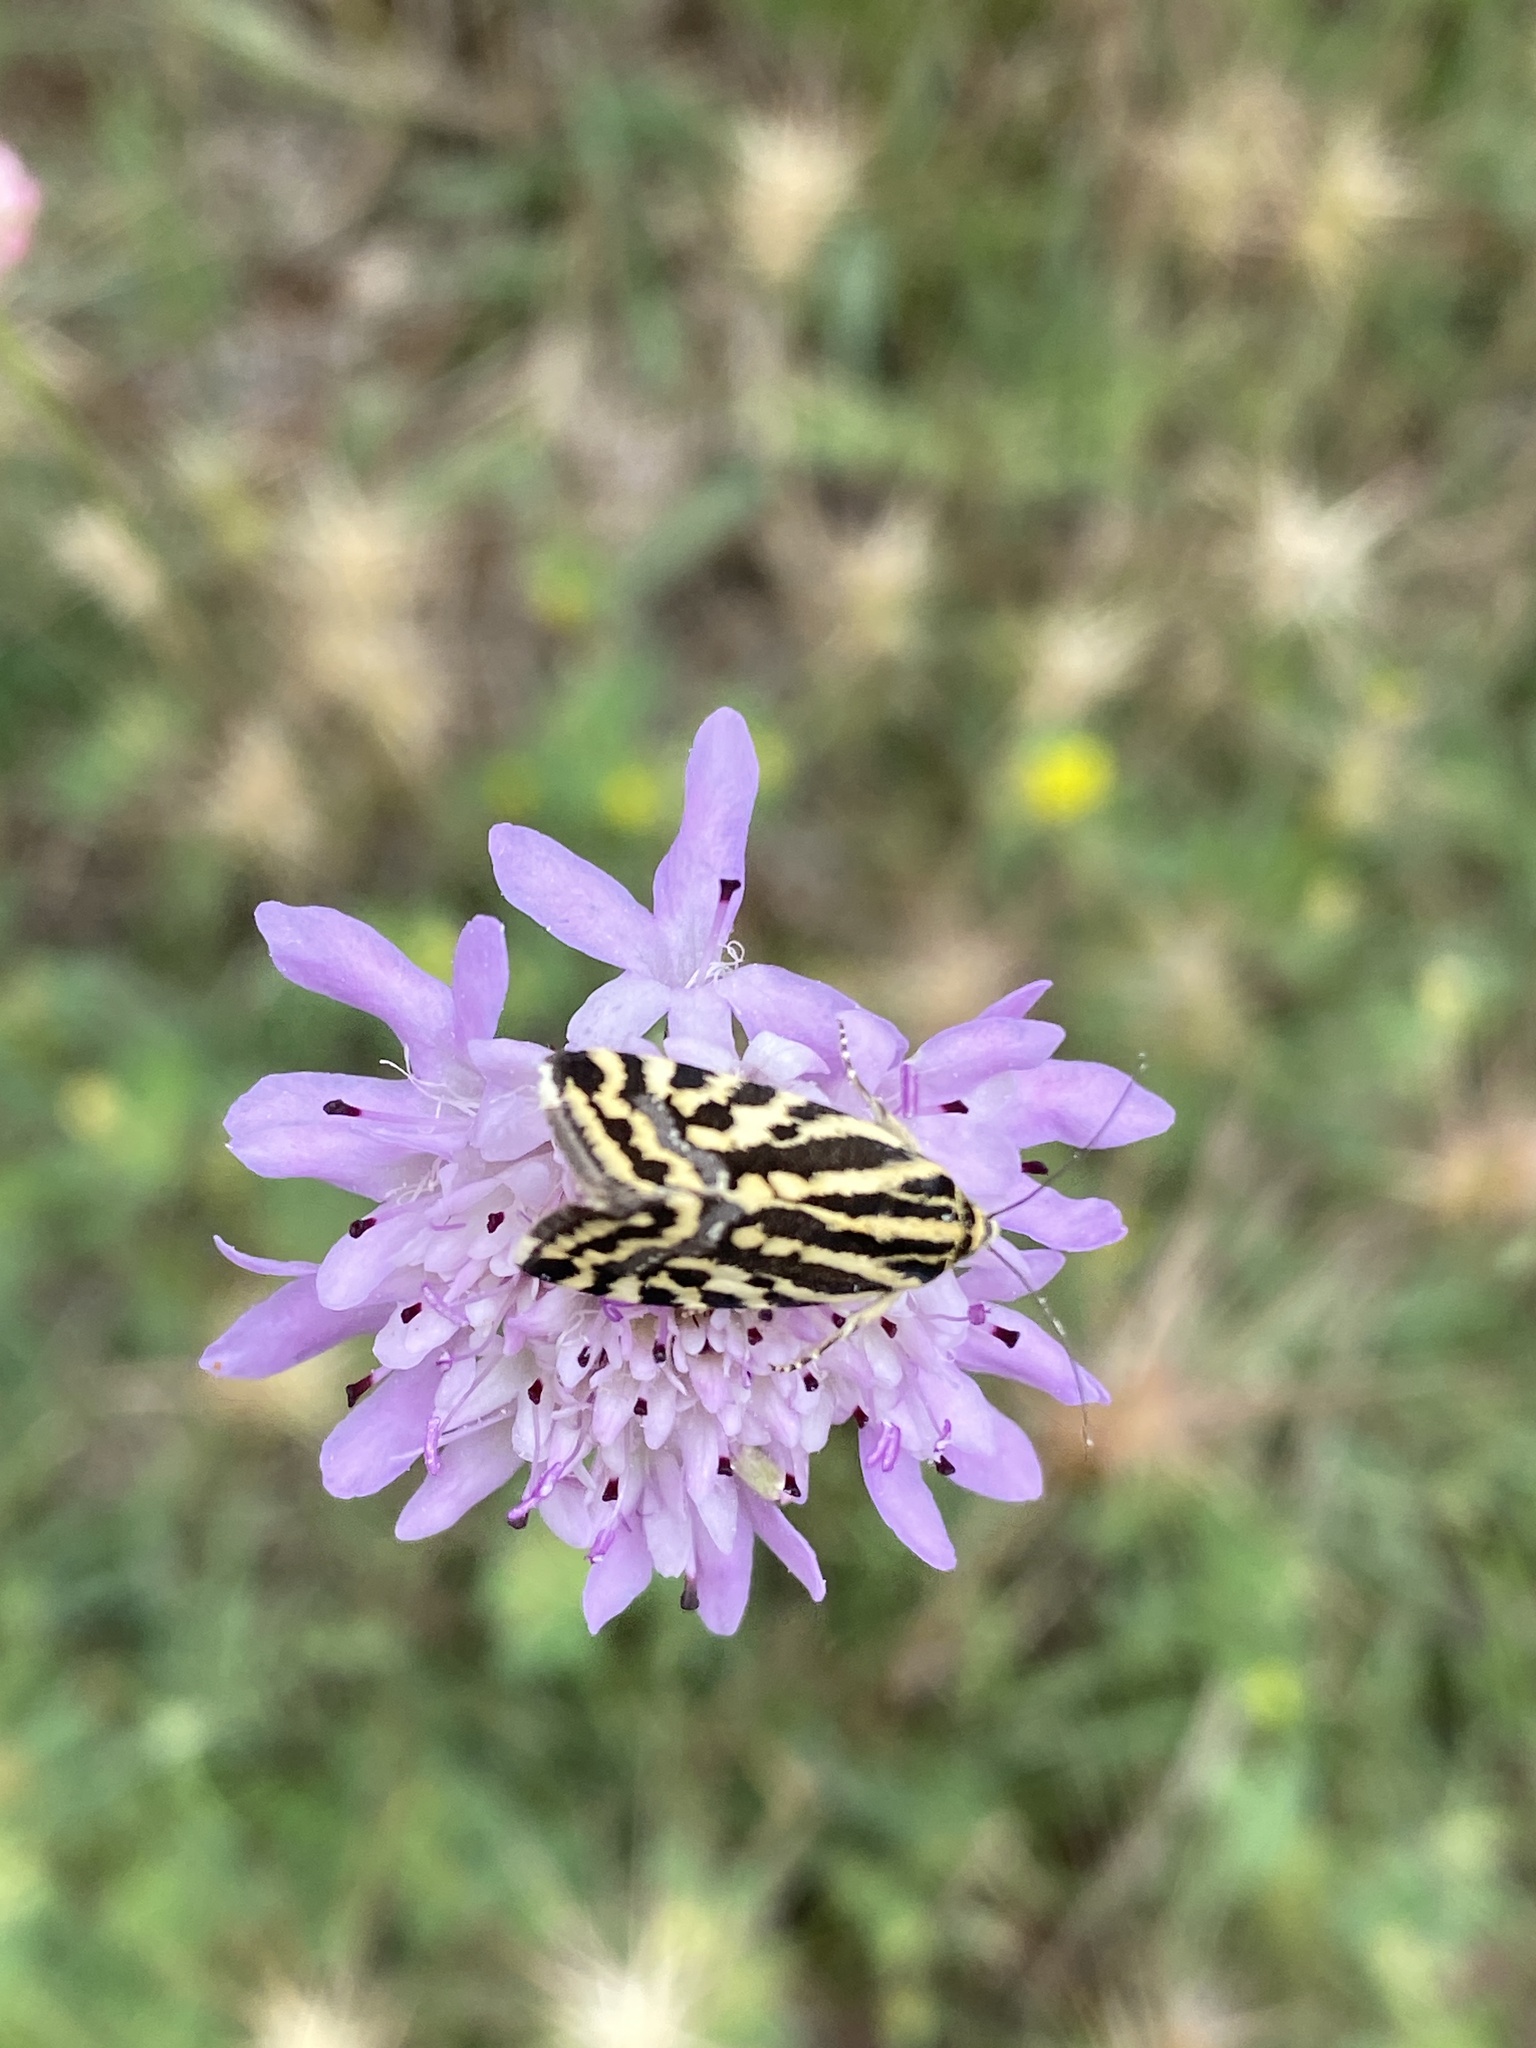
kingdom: Animalia
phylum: Arthropoda
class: Insecta
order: Lepidoptera
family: Noctuidae
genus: Acontia
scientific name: Acontia trabealis
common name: Spotted sulphur
